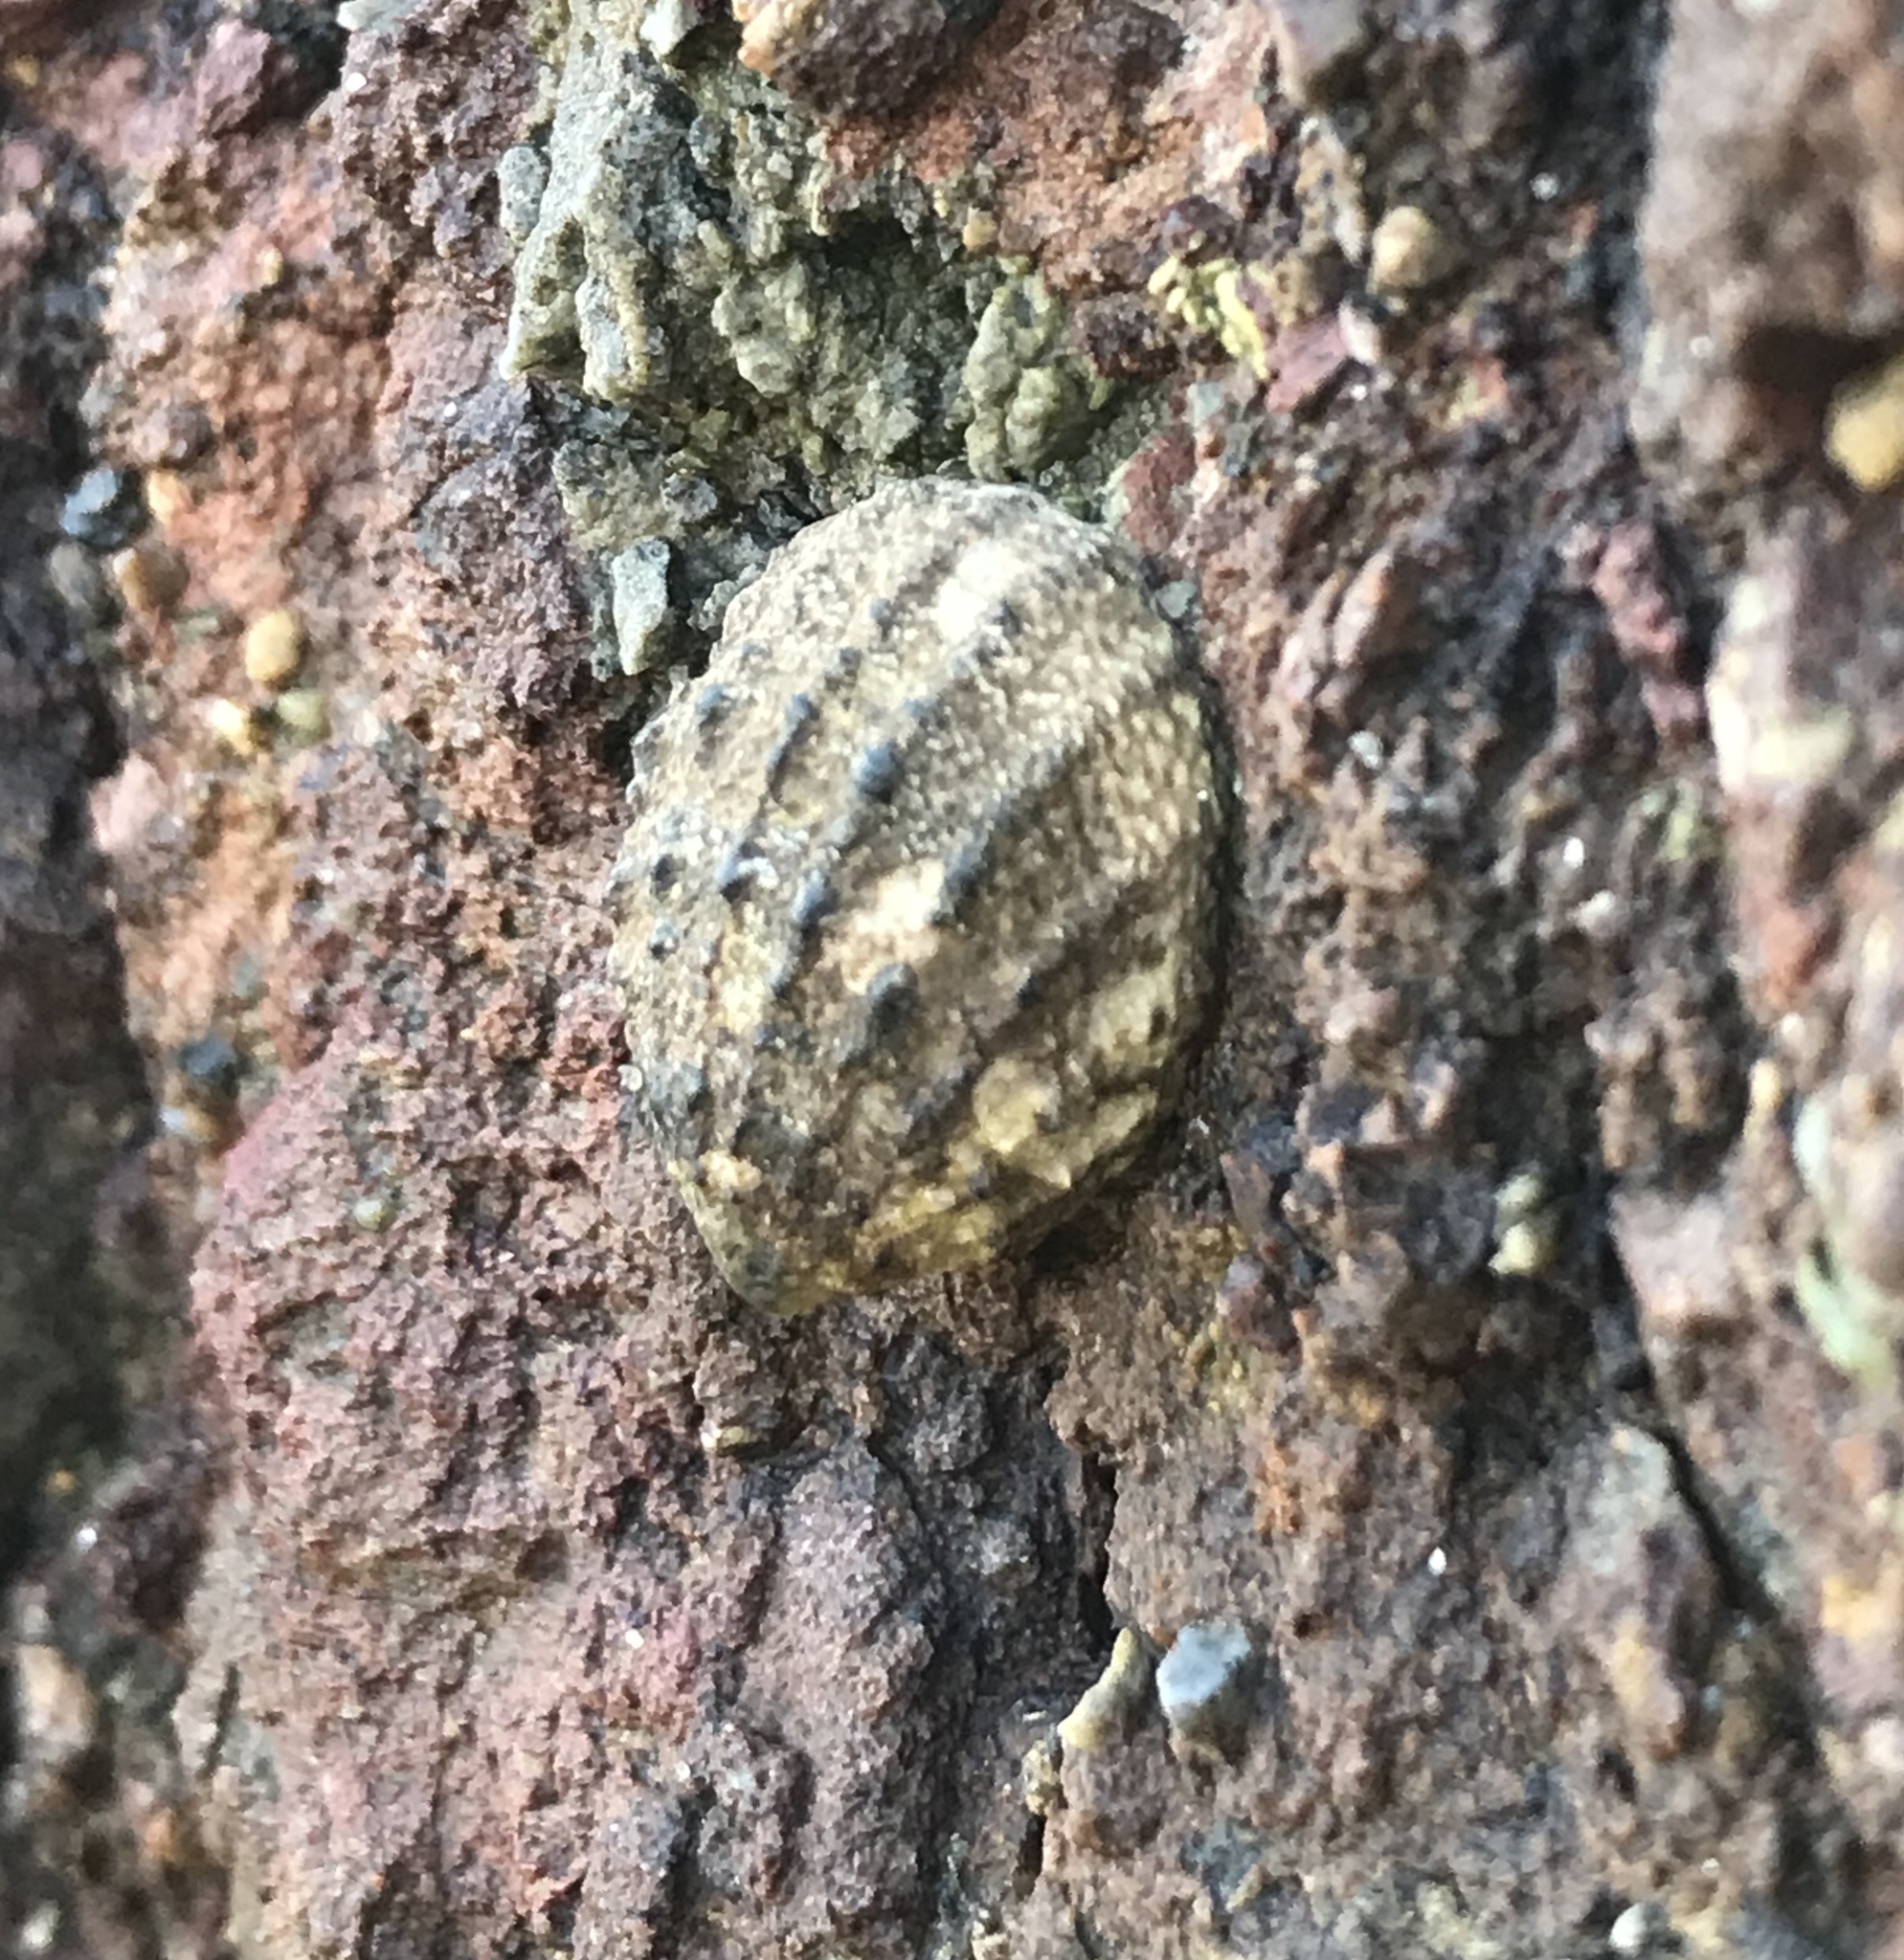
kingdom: Animalia
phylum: Mollusca
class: Gastropoda
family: Lottiidae
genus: Lottia
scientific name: Lottia digitalis
